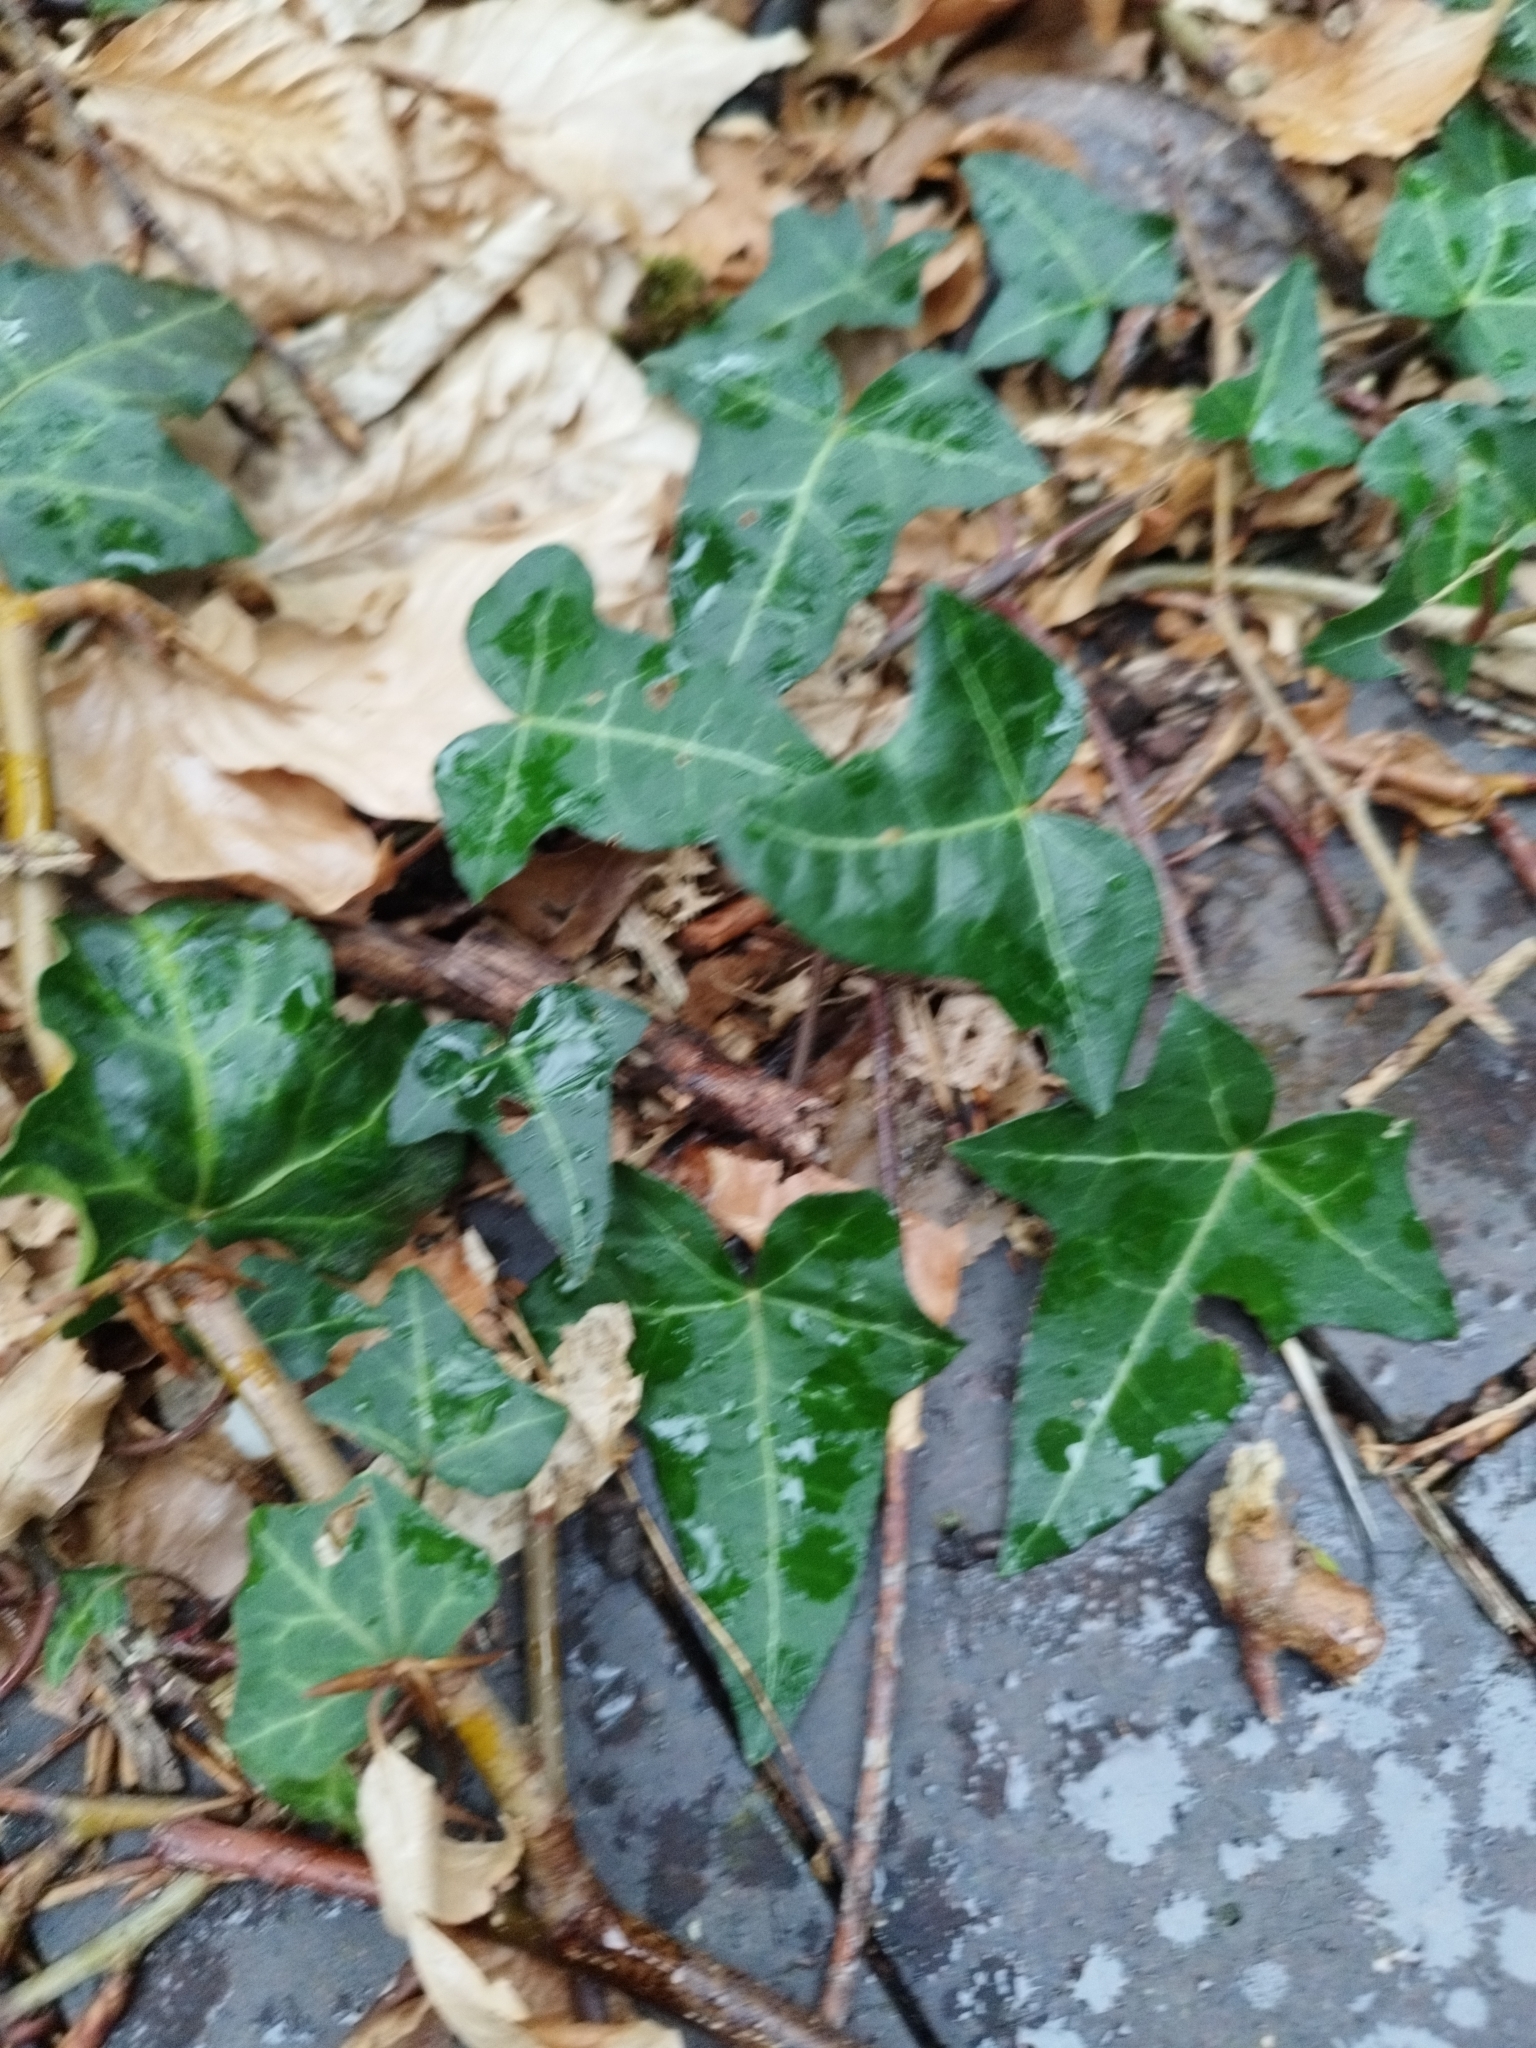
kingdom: Plantae
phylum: Tracheophyta
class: Magnoliopsida
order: Apiales
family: Araliaceae
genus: Hedera
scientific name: Hedera helix
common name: Ivy
